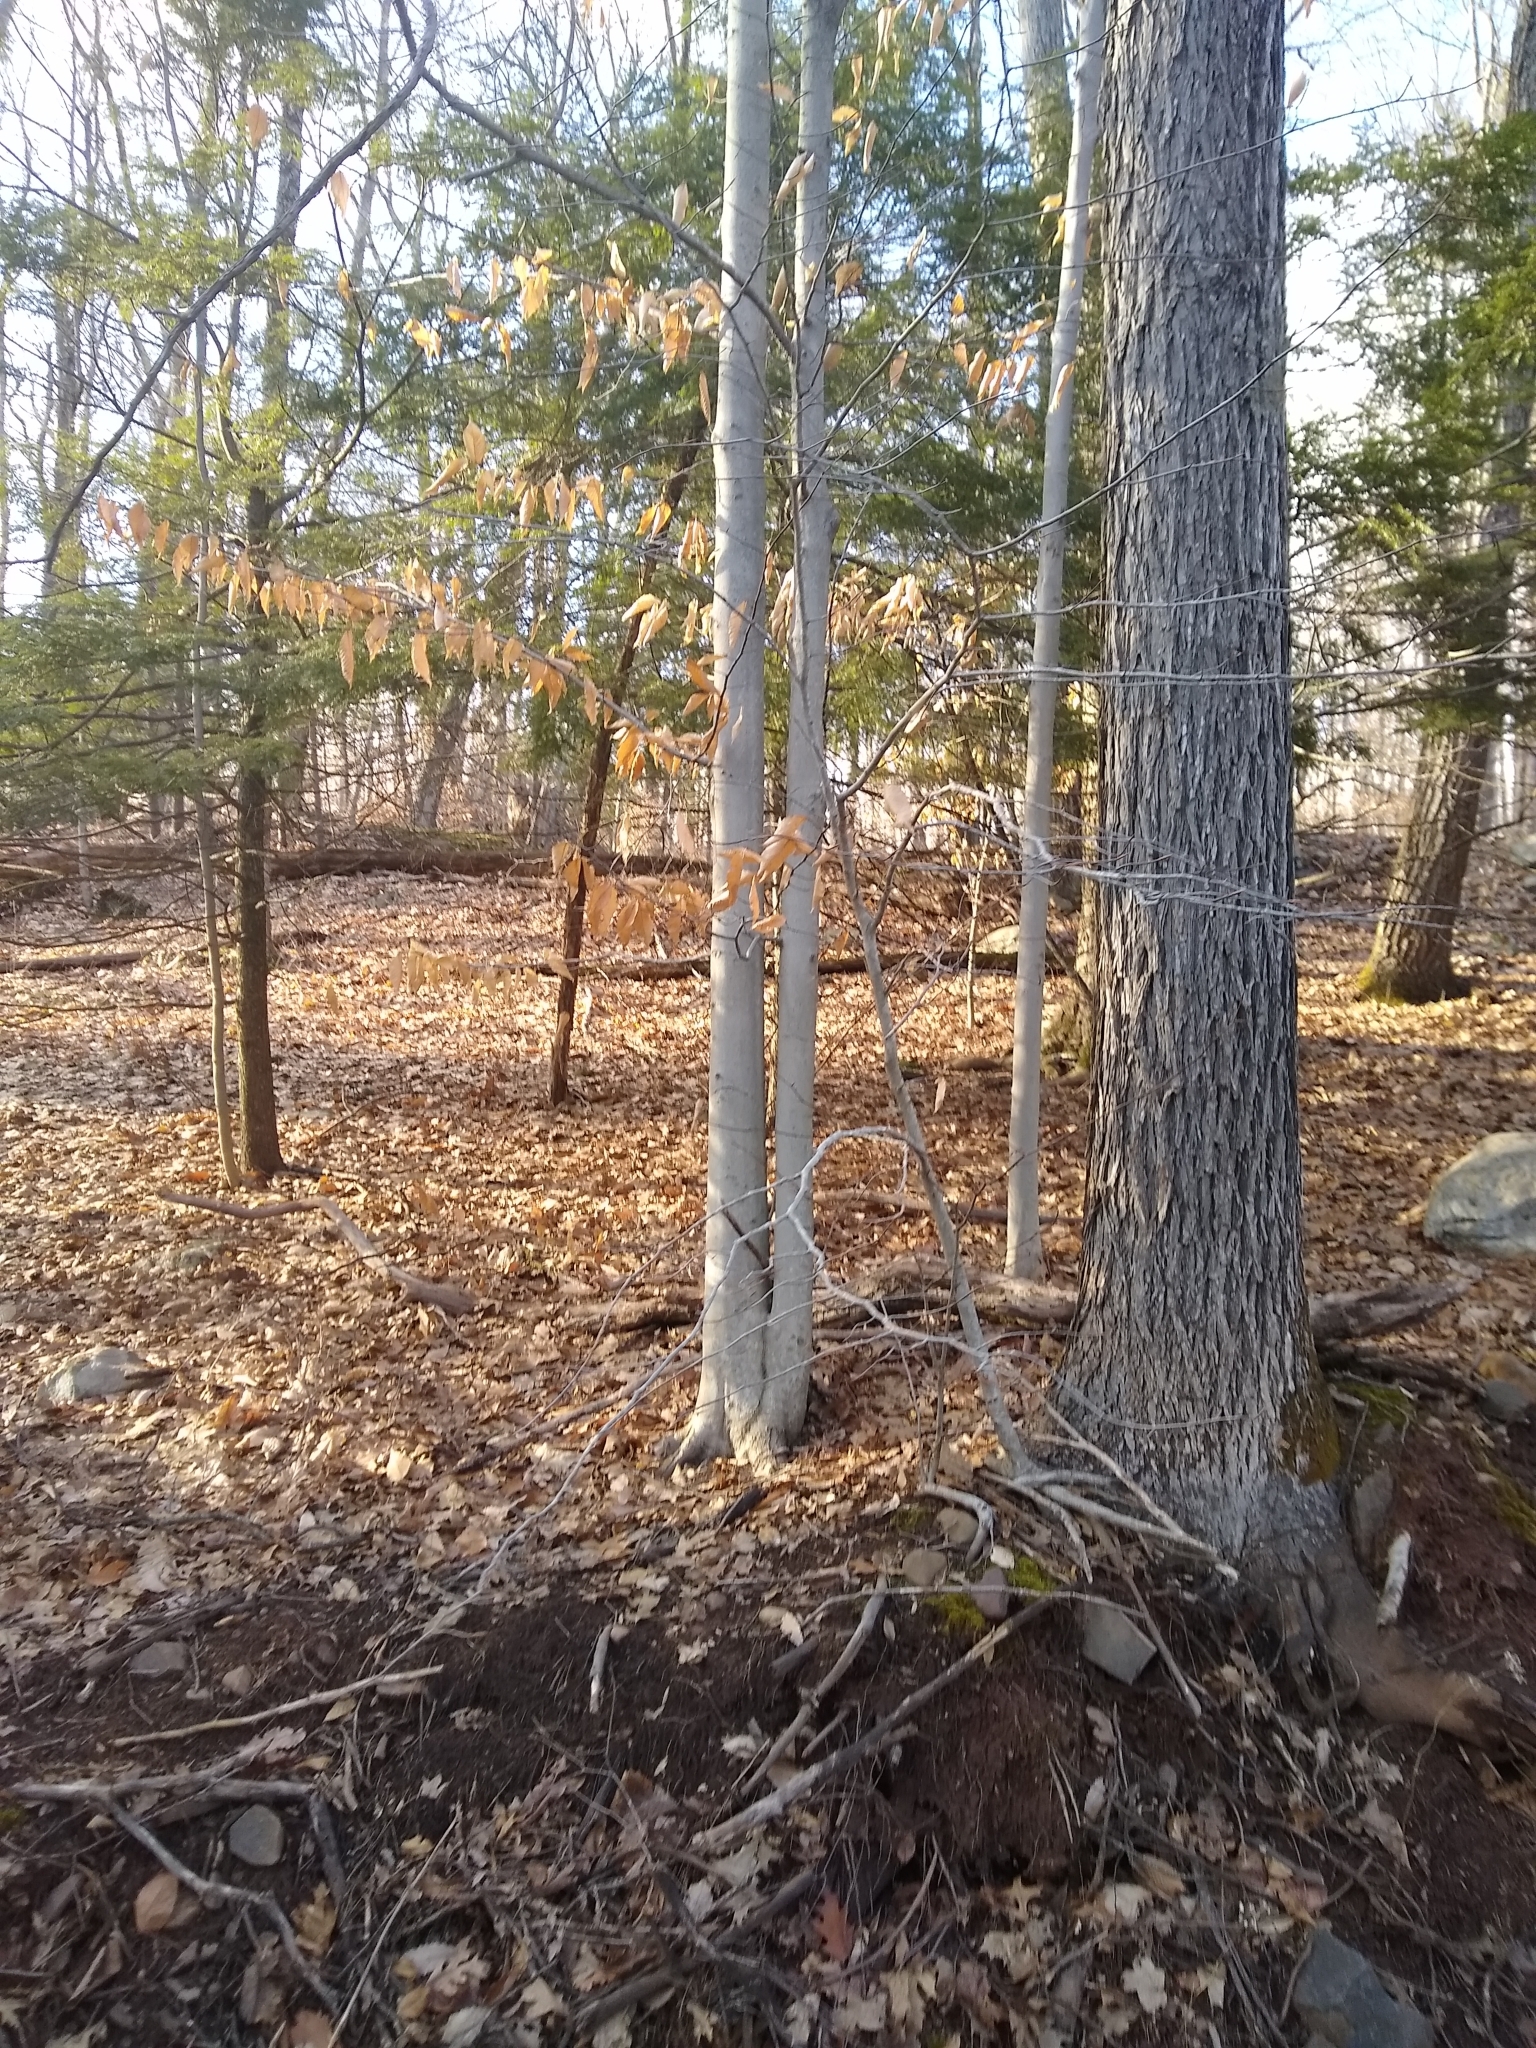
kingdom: Plantae
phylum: Tracheophyta
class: Magnoliopsida
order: Fagales
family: Fagaceae
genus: Fagus
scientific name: Fagus grandifolia
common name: American beech
